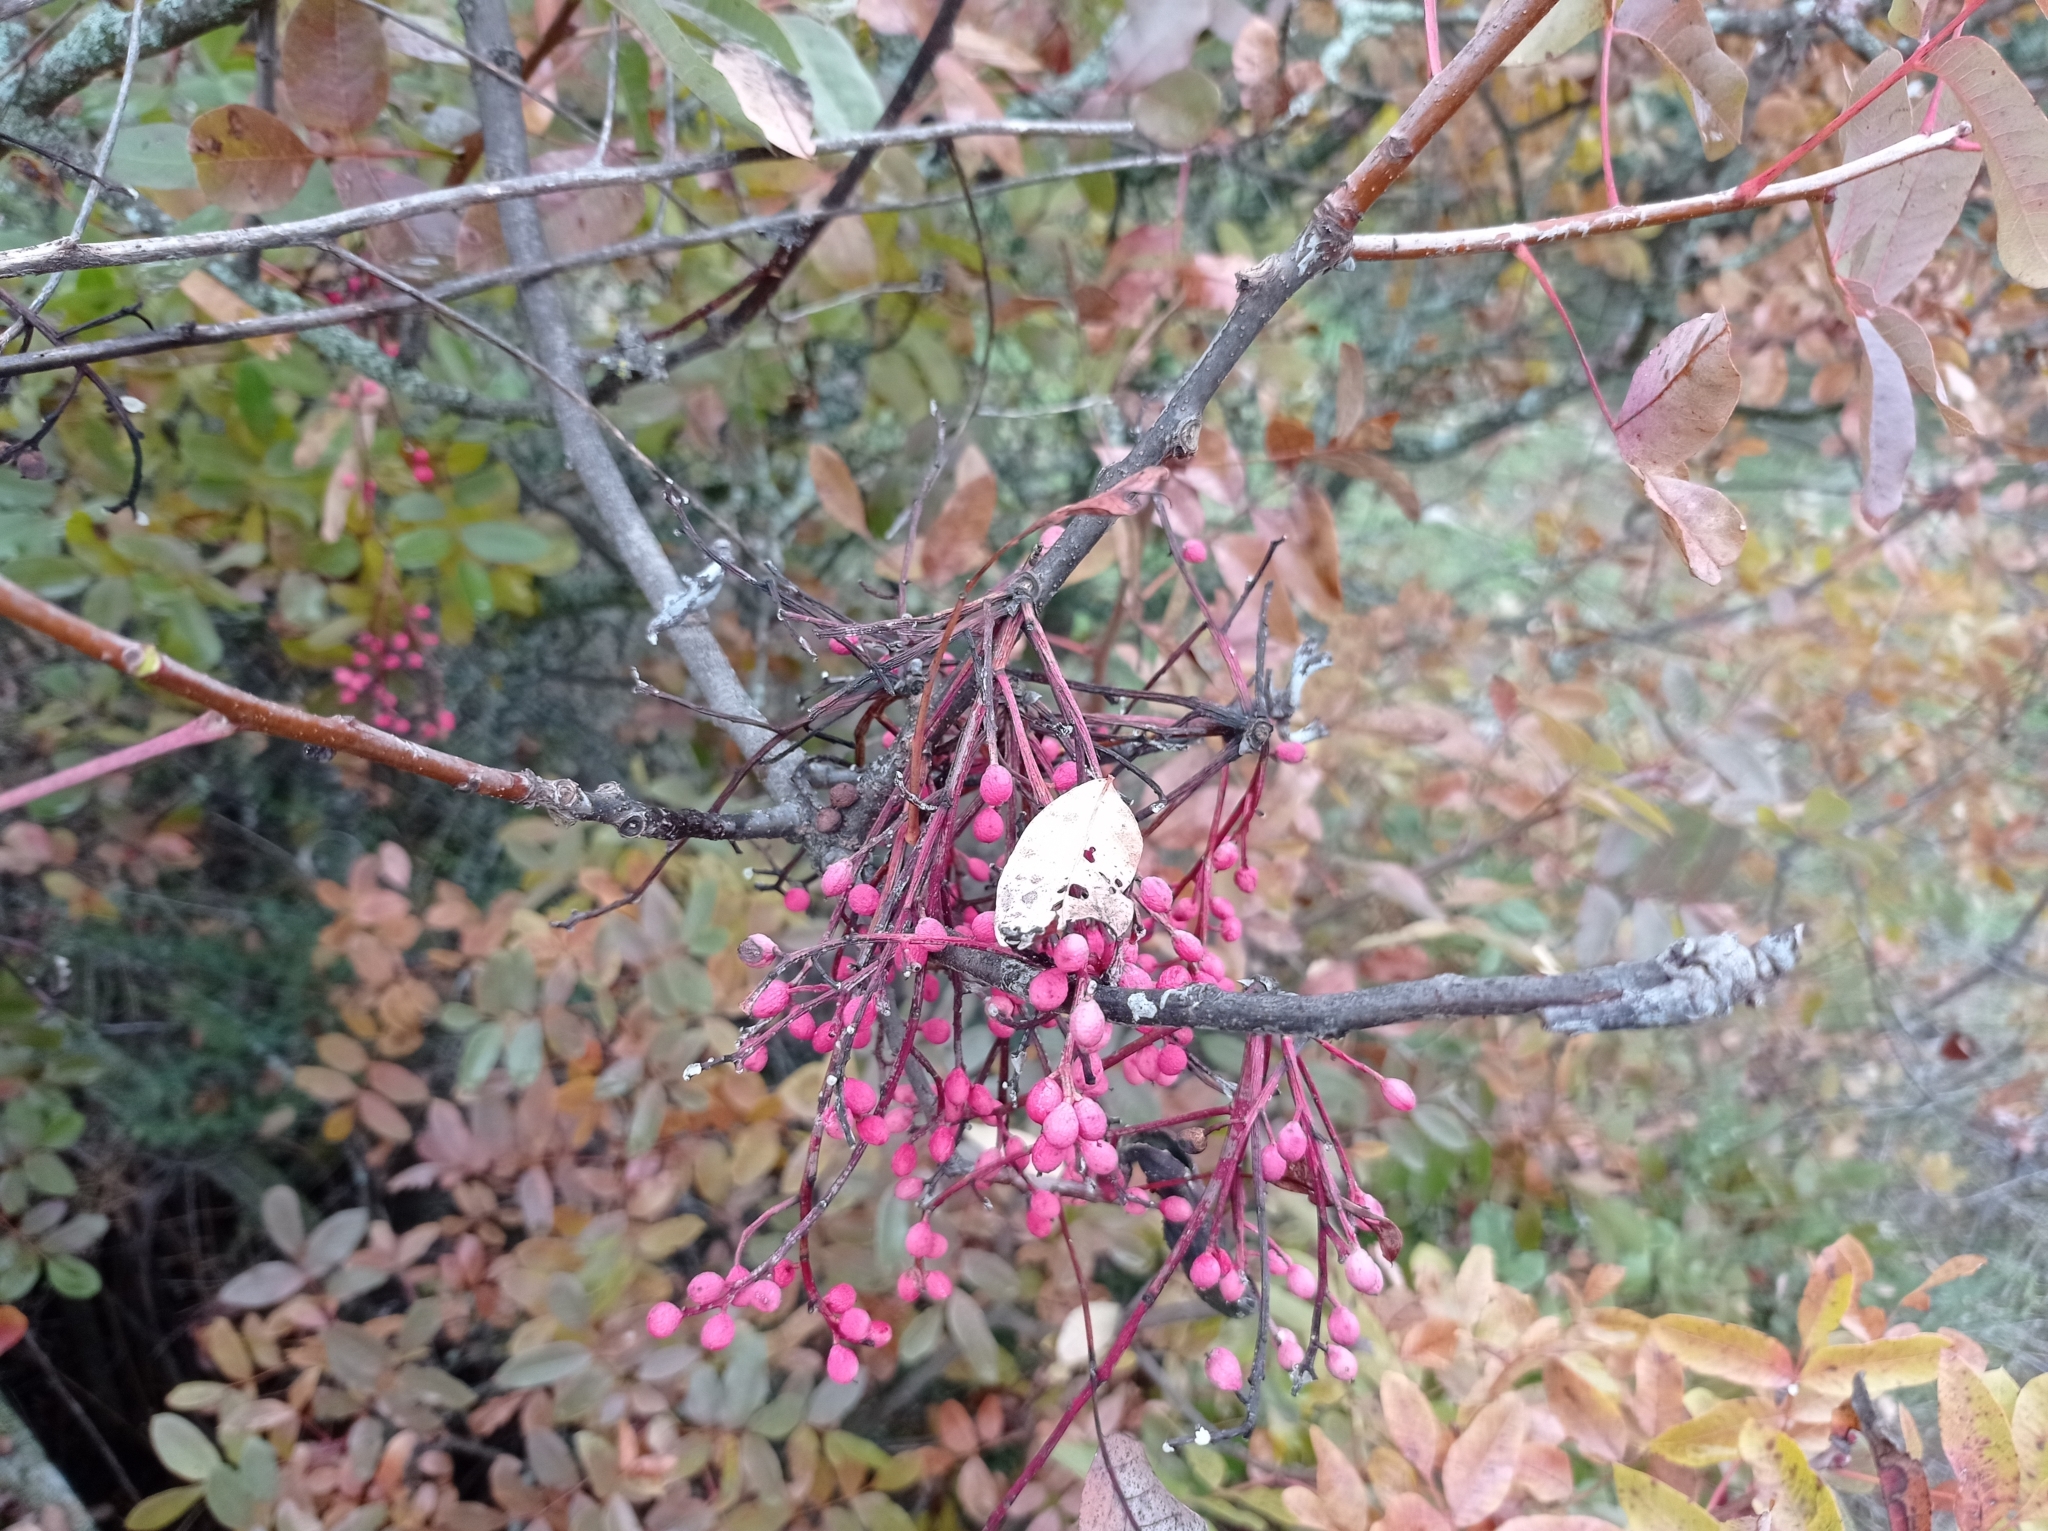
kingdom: Plantae
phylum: Tracheophyta
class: Magnoliopsida
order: Sapindales
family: Anacardiaceae
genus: Pistacia
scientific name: Pistacia terebinthus
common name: Terebinth
